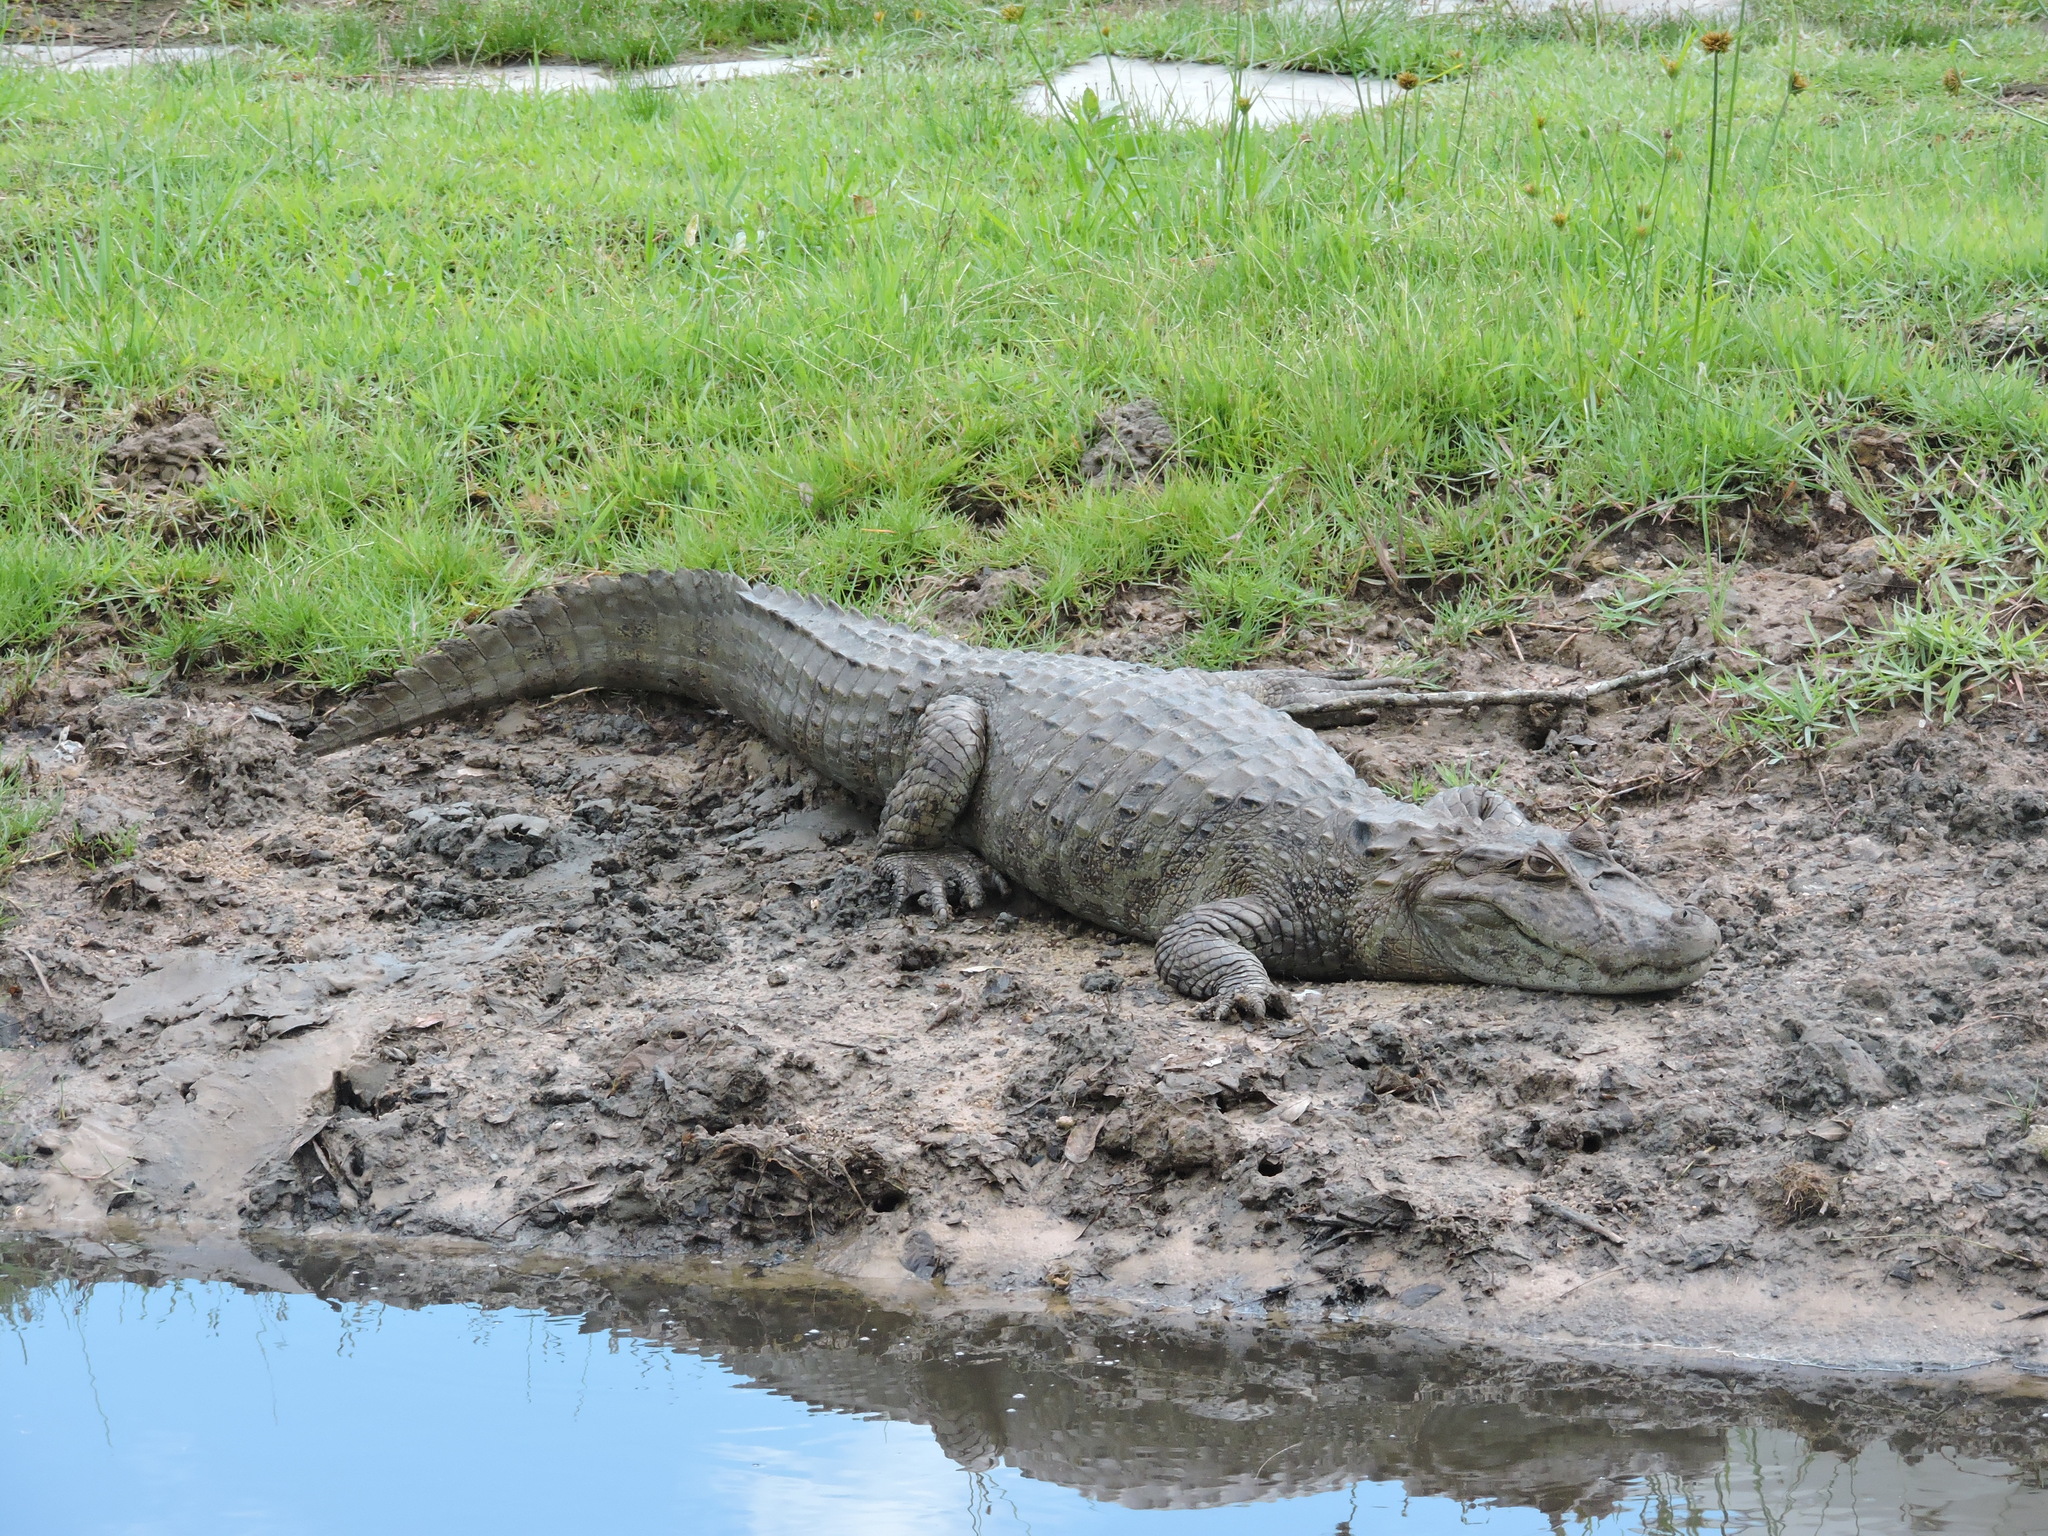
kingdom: Animalia
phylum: Chordata
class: Crocodylia
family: Alligatoridae
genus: Caiman
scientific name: Caiman latirostris
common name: Broad-snouted caiman
